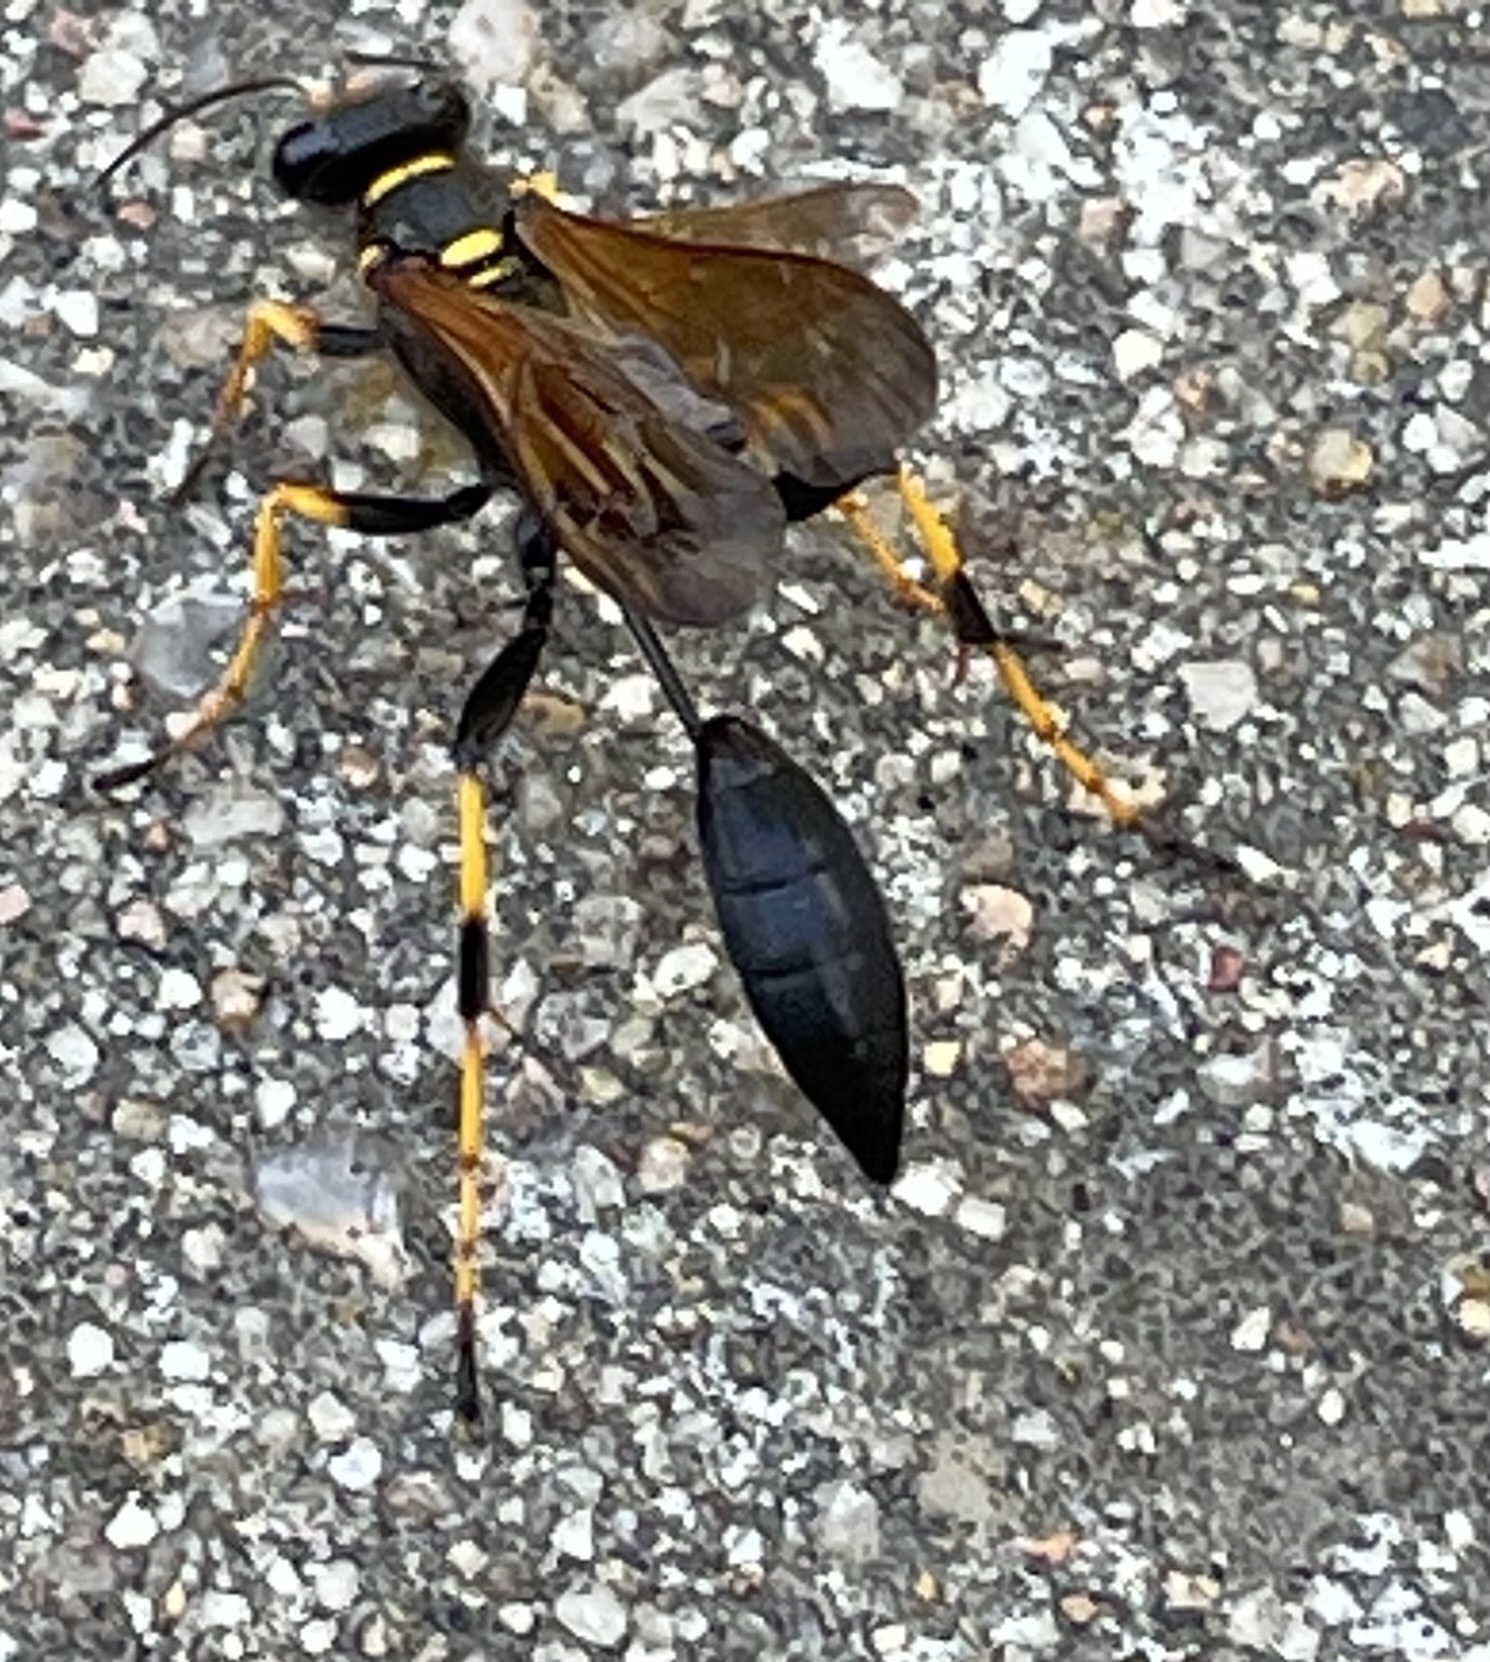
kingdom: Animalia
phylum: Arthropoda
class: Insecta
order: Hymenoptera
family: Sphecidae
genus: Sceliphron
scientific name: Sceliphron caementarium
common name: Mud dauber
